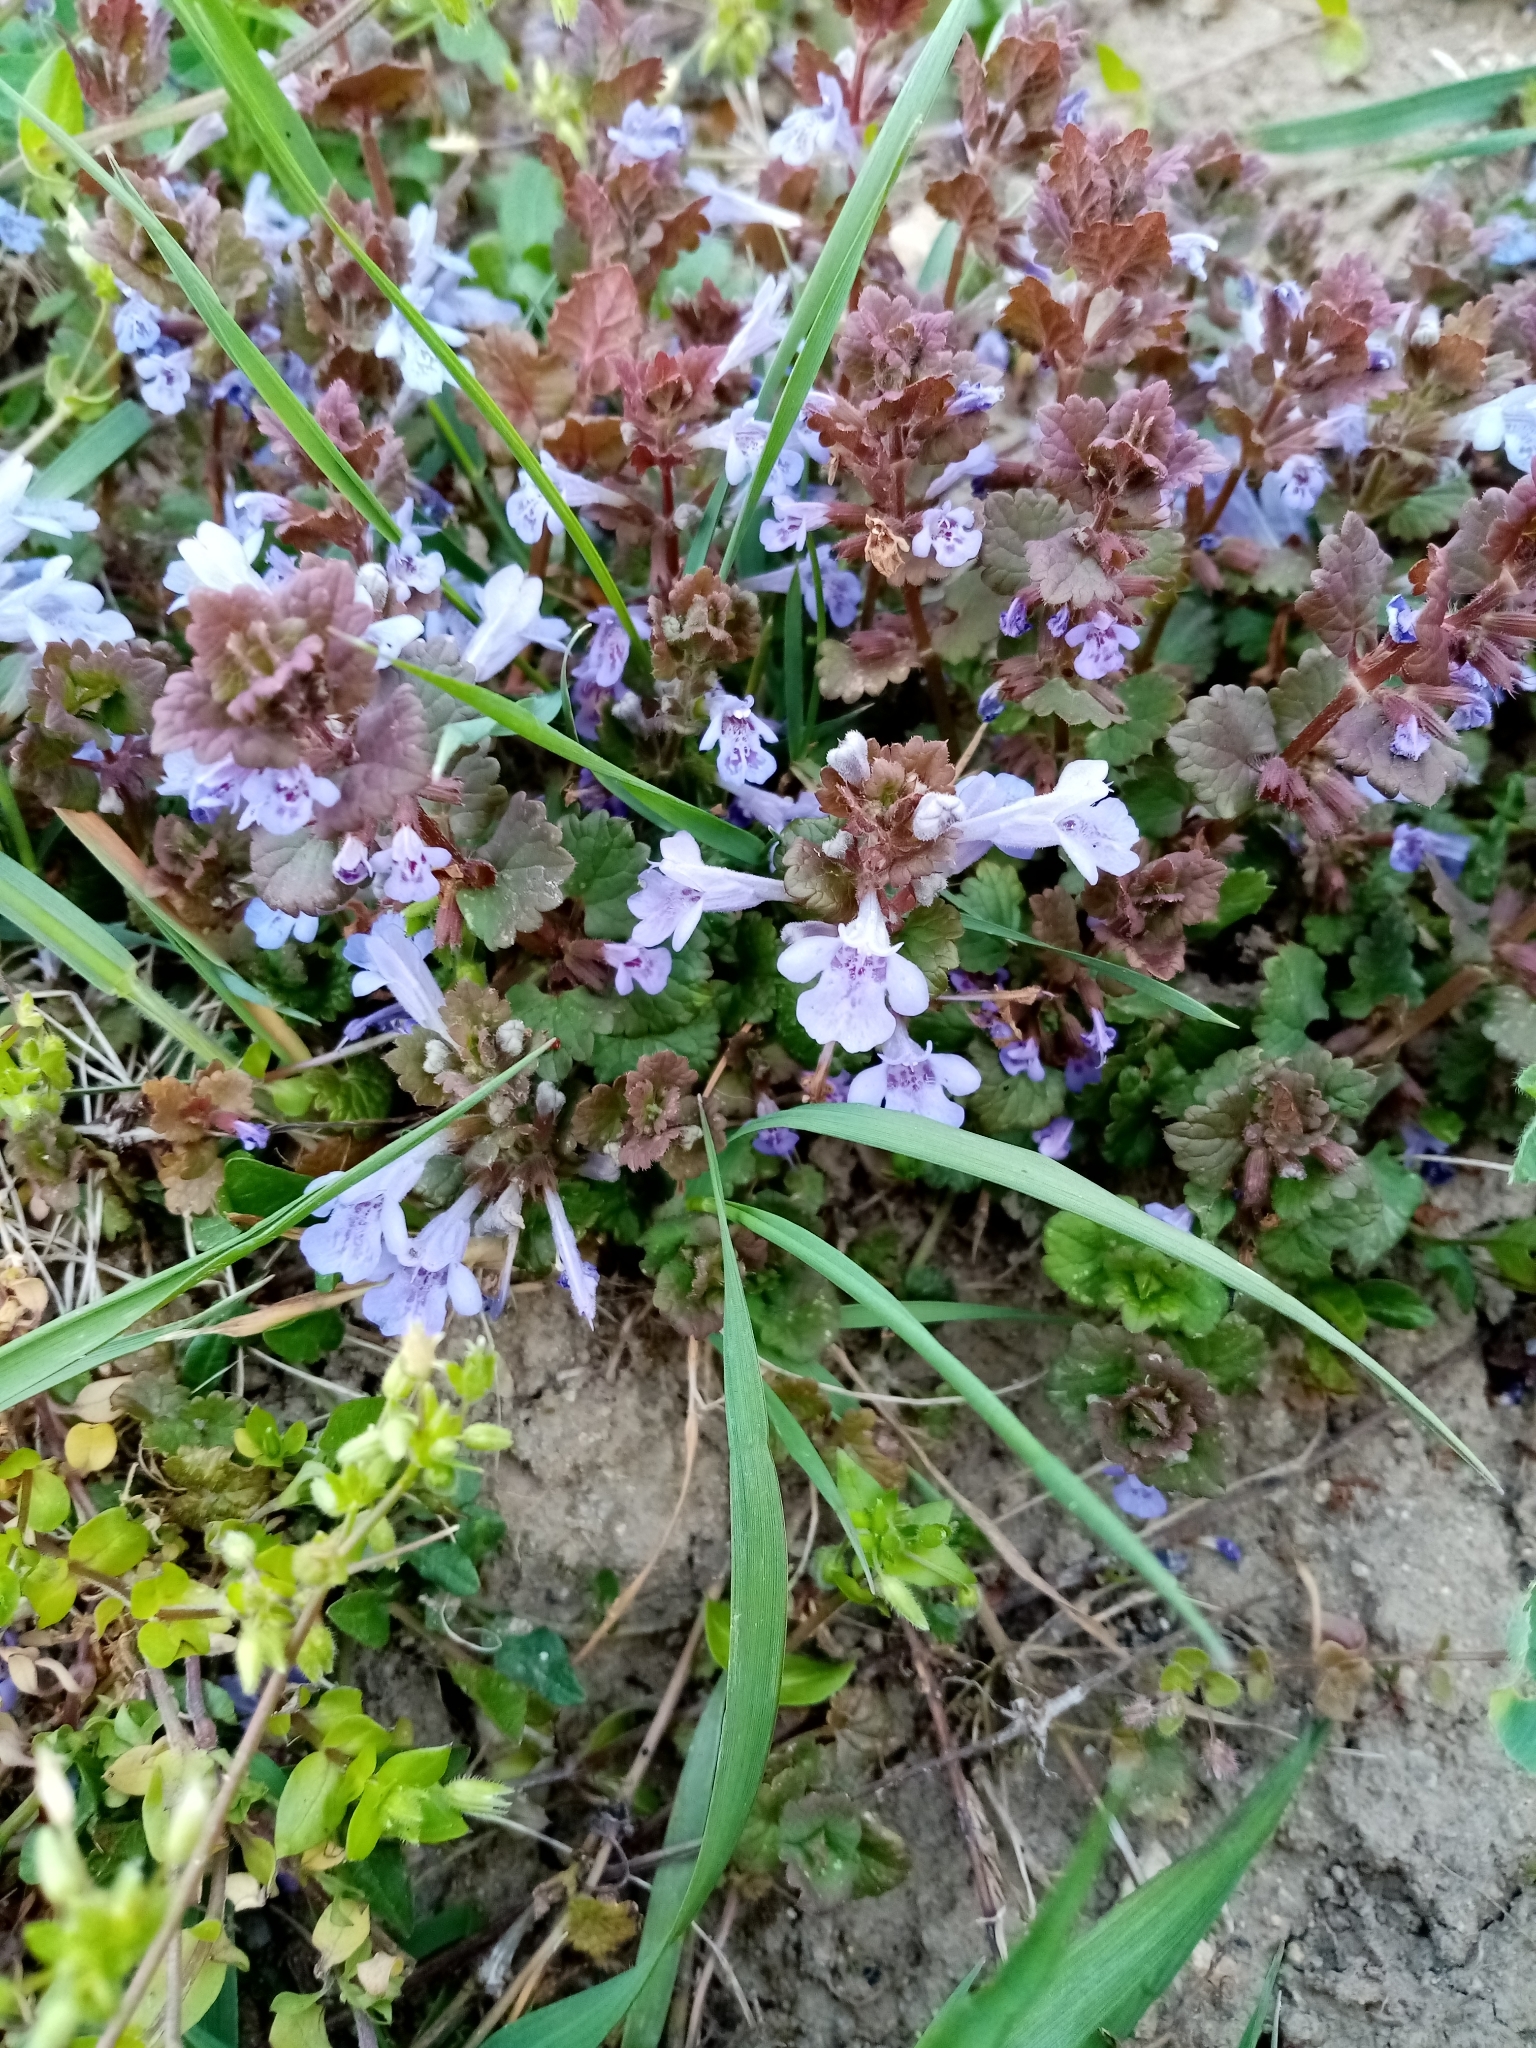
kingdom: Plantae
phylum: Tracheophyta
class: Magnoliopsida
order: Lamiales
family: Lamiaceae
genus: Glechoma
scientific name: Glechoma hederacea
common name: Ground ivy
